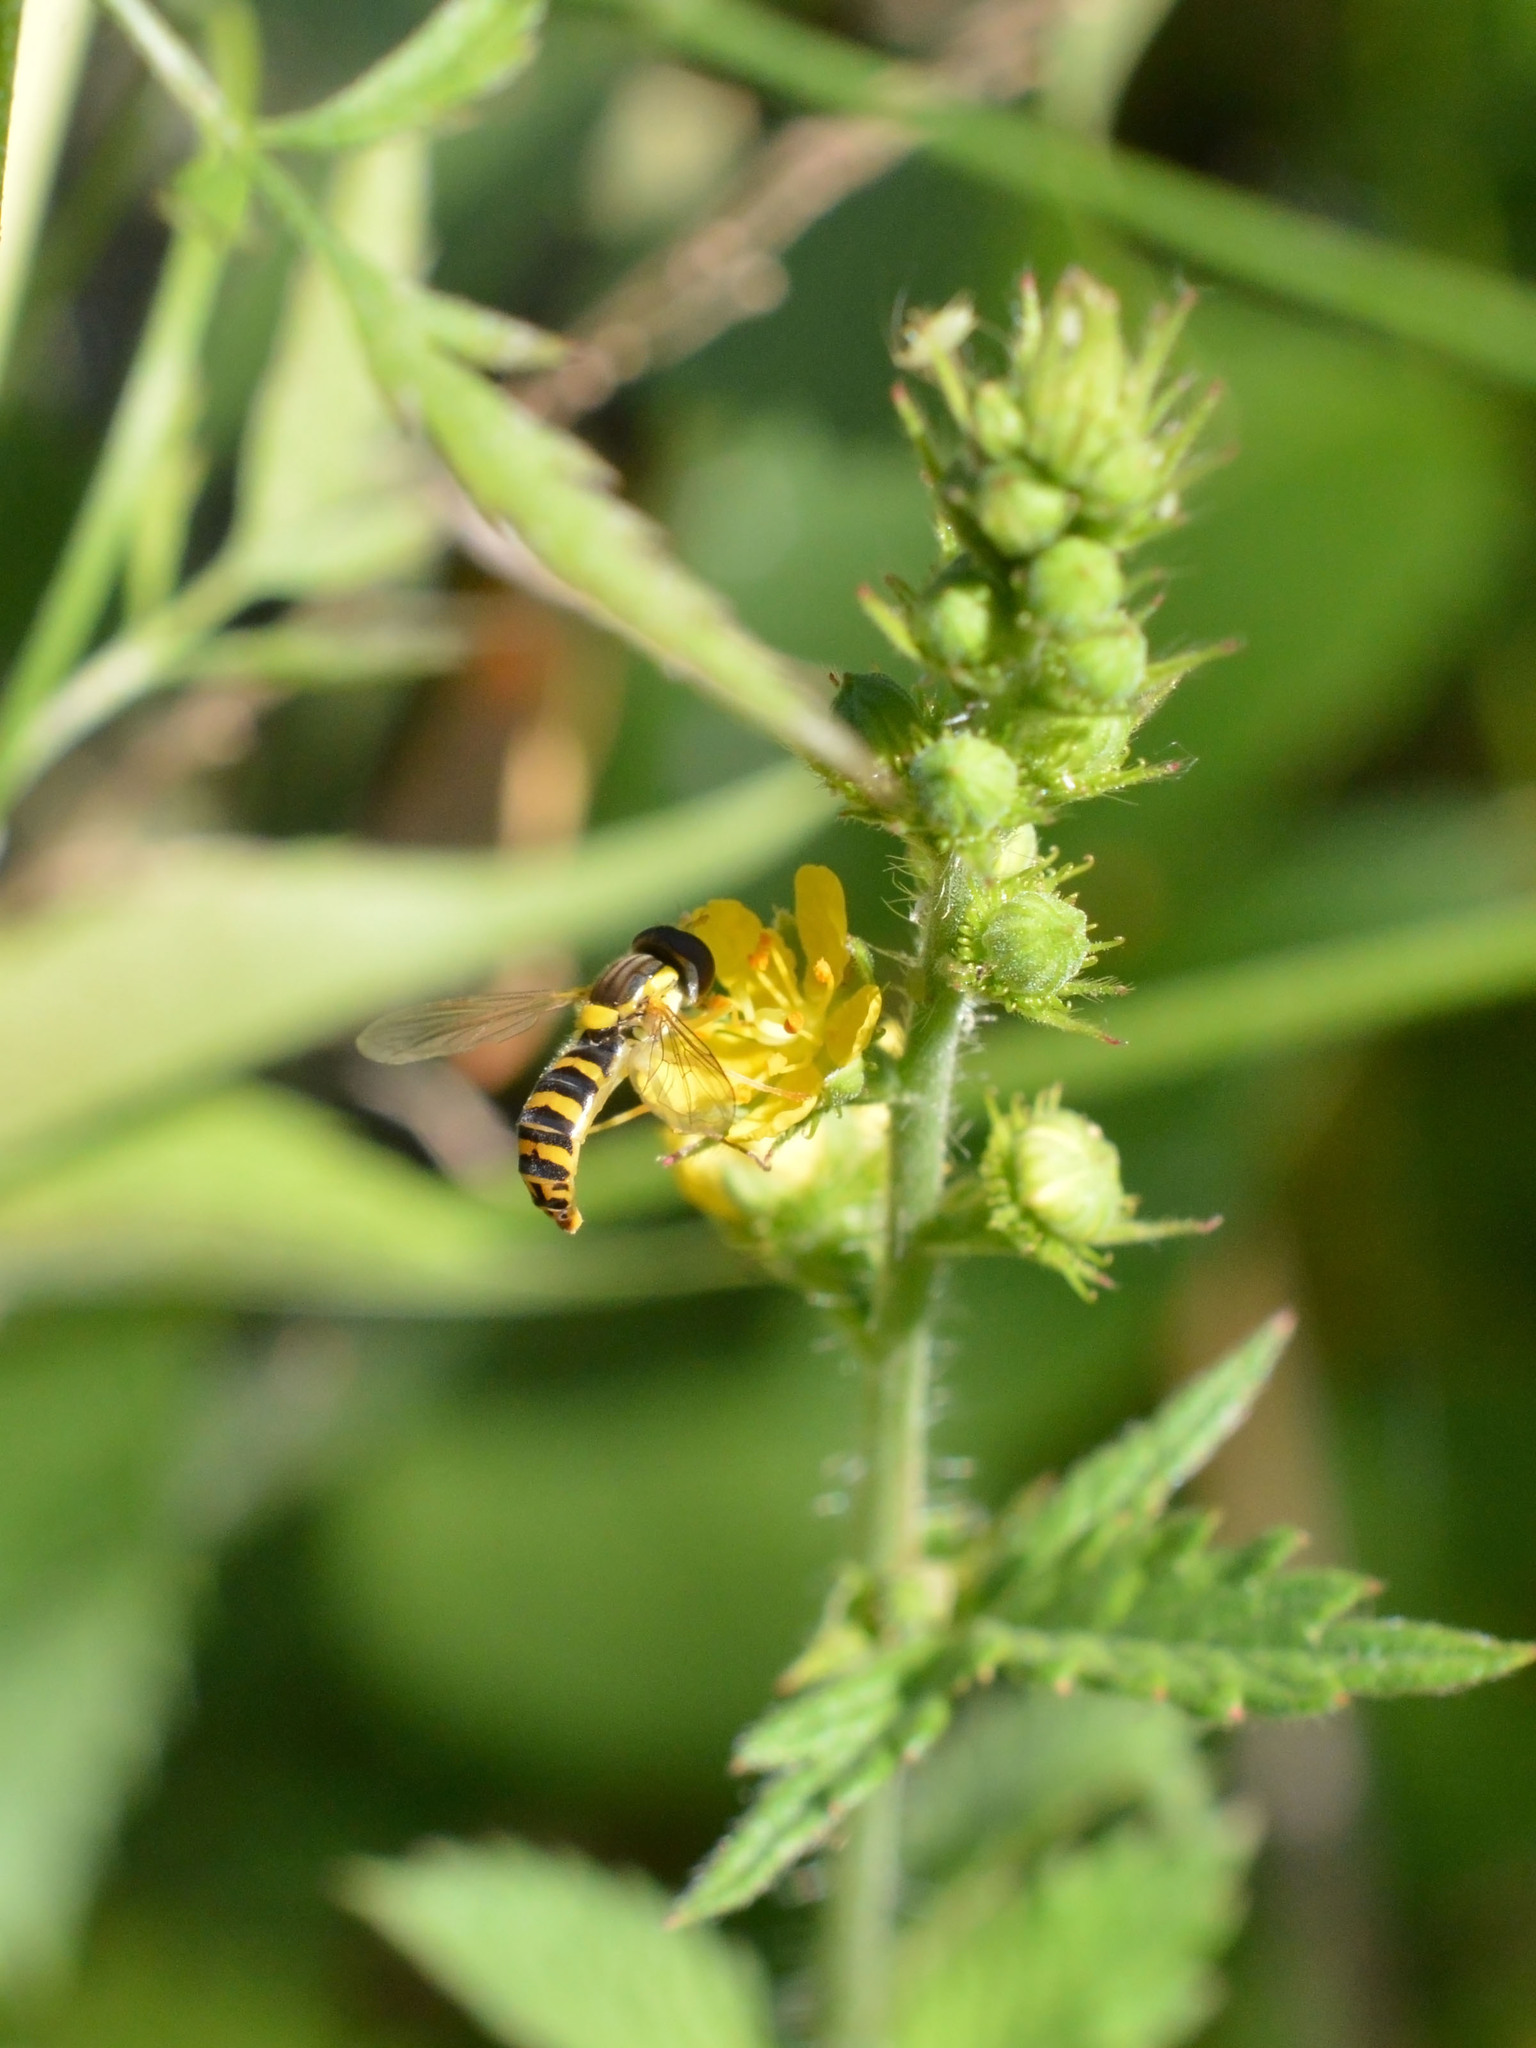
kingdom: Animalia
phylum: Arthropoda
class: Insecta
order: Diptera
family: Syrphidae
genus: Sphaerophoria
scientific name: Sphaerophoria
